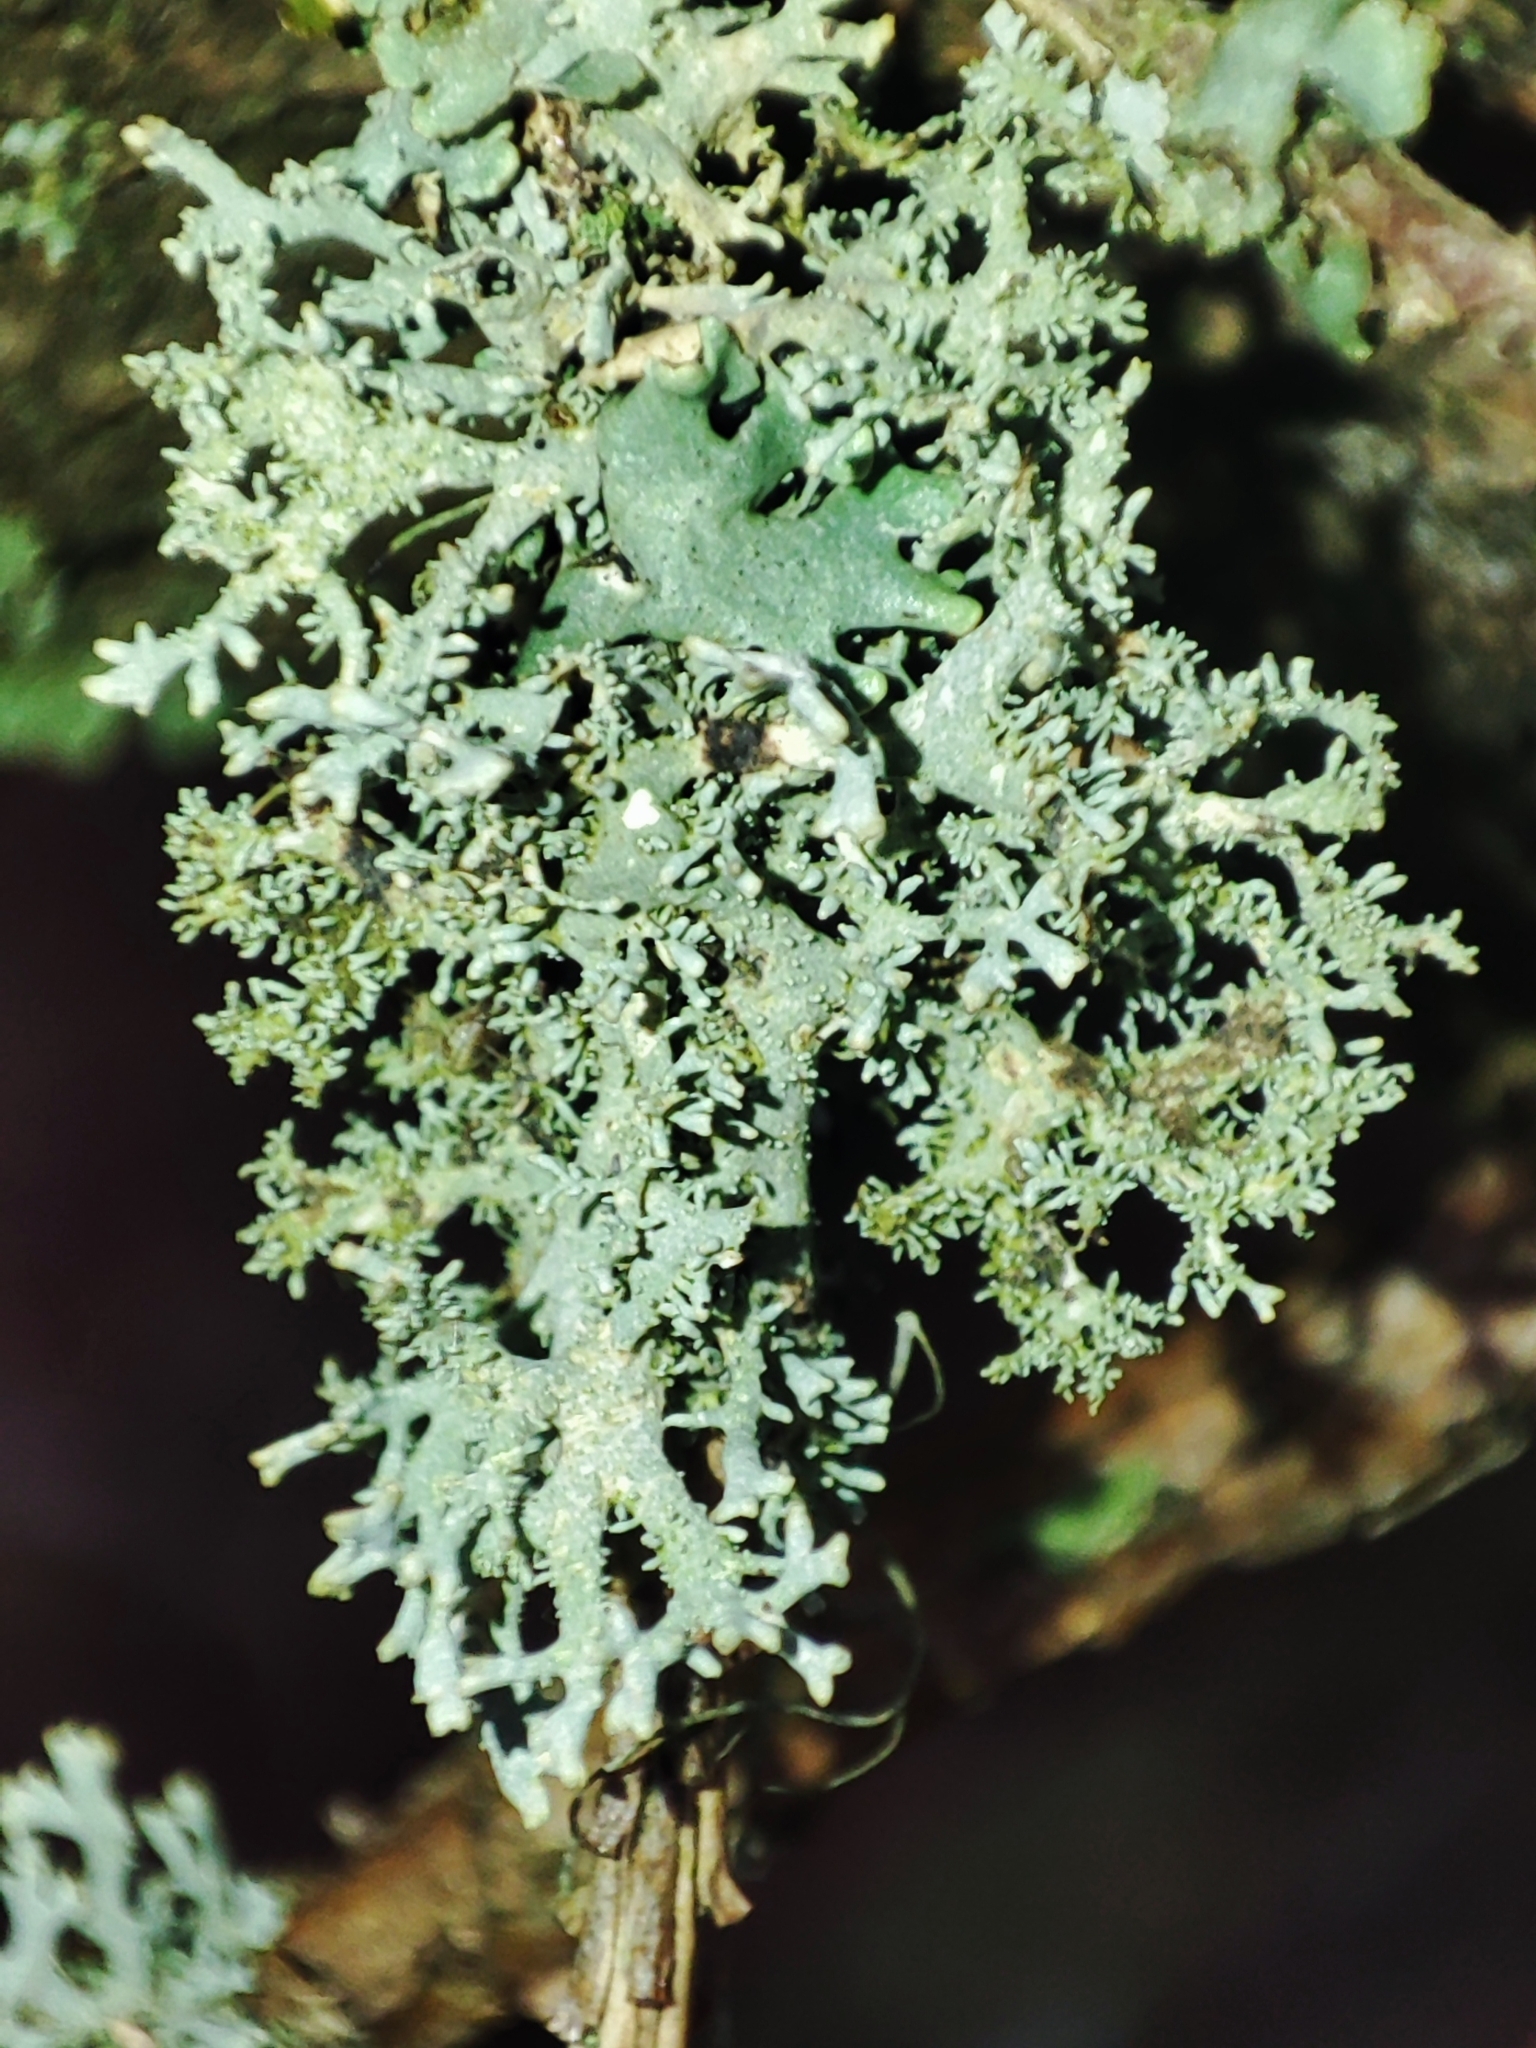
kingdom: Fungi
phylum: Ascomycota
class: Lecanoromycetes
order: Lecanorales
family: Parmeliaceae
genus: Pseudevernia
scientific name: Pseudevernia furfuracea
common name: Tree moss
